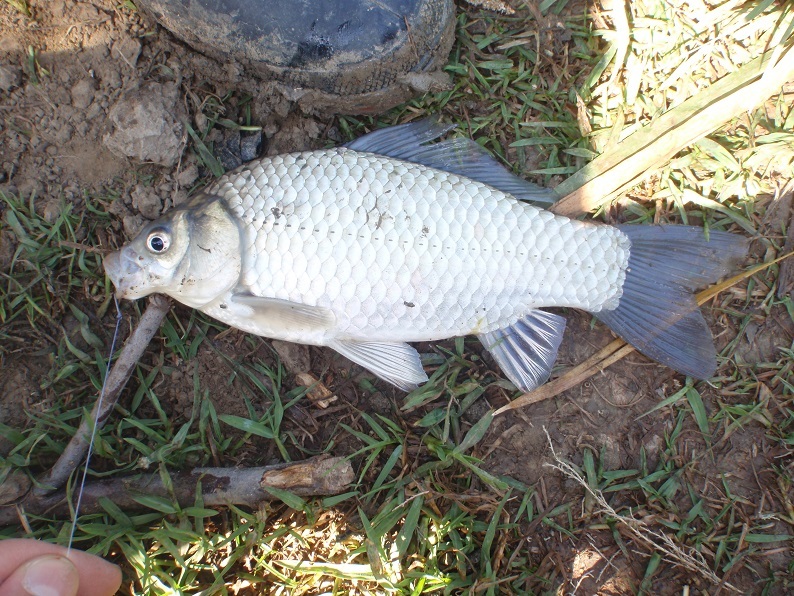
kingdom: Animalia
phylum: Chordata
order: Cypriniformes
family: Cyprinidae
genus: Carassius
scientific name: Carassius gibelio
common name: Prussian carp
